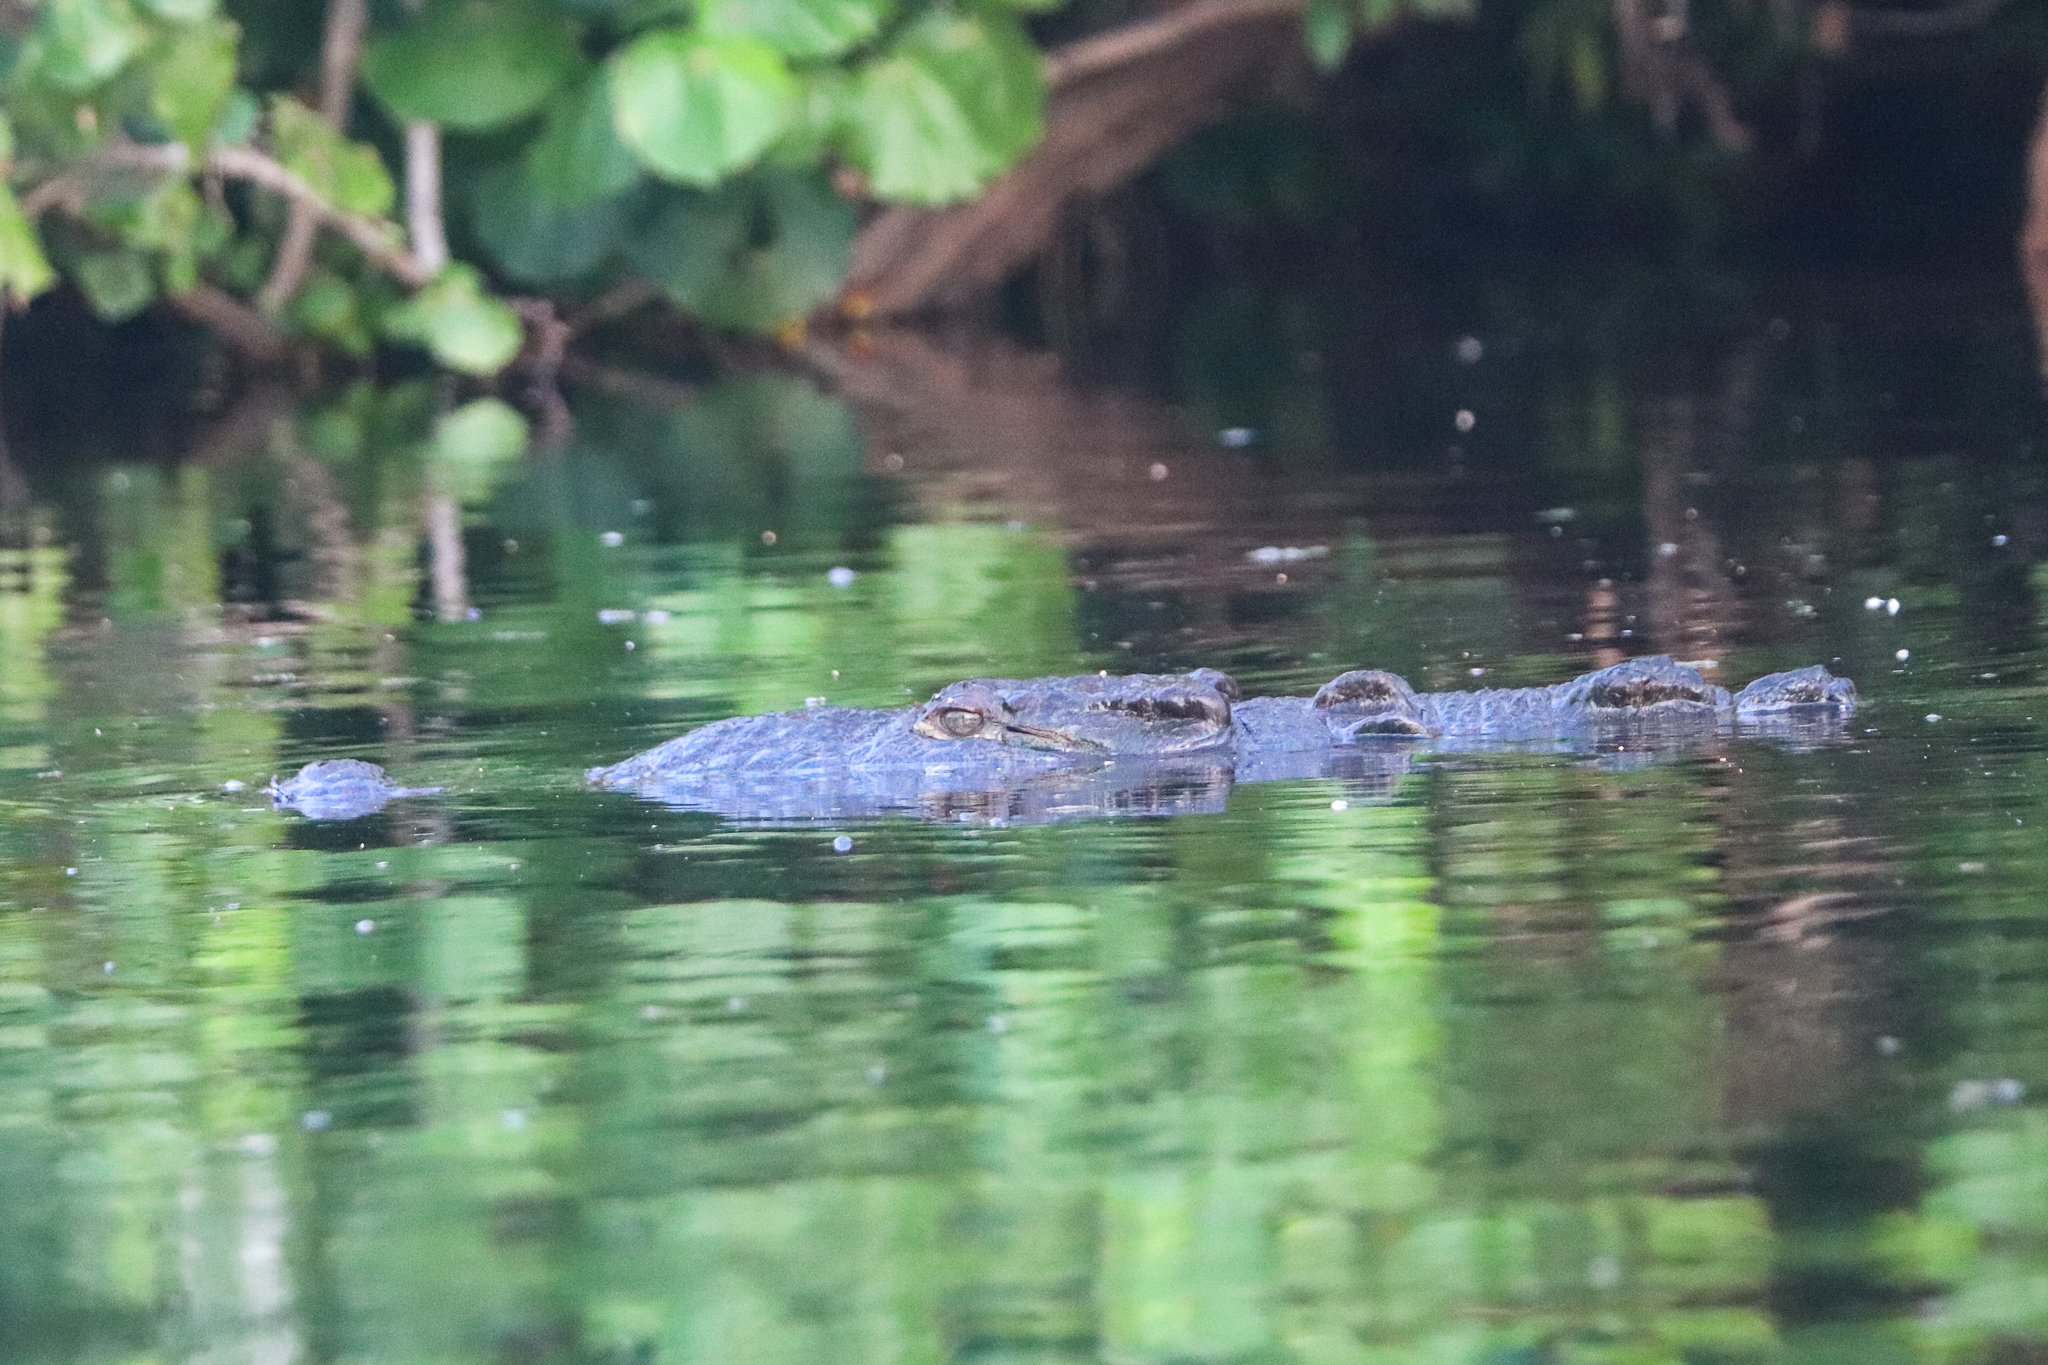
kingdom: Animalia
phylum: Chordata
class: Crocodylia
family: Crocodylidae
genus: Crocodylus
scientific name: Crocodylus acutus
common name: American crocodile
